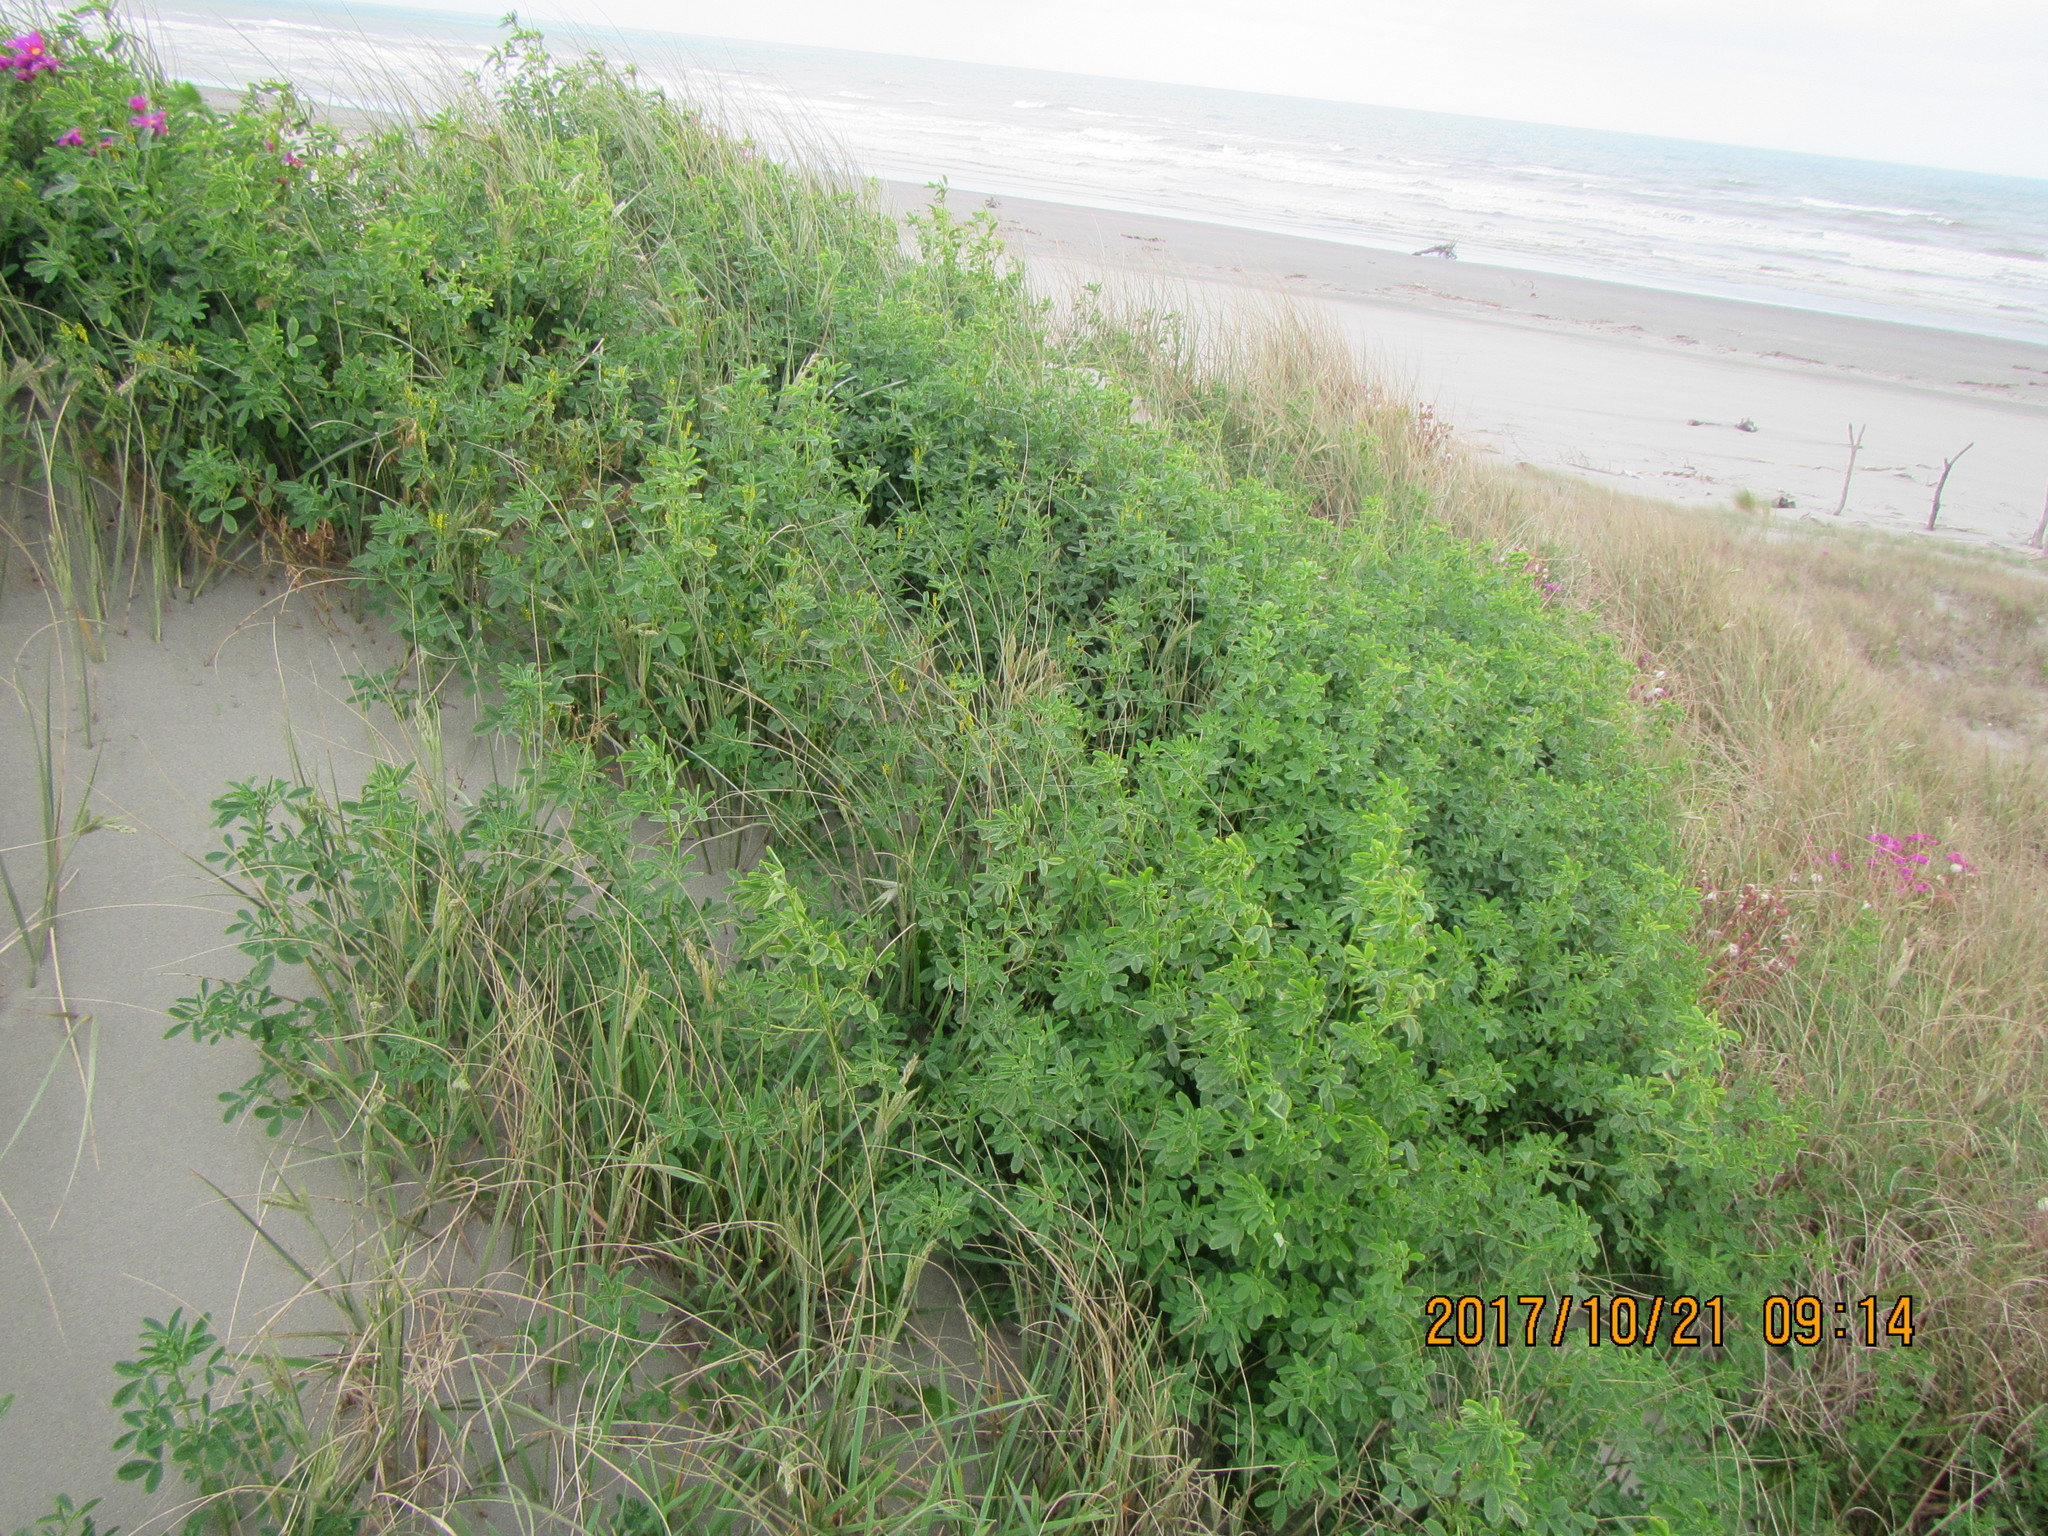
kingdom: Plantae
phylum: Tracheophyta
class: Magnoliopsida
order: Fabales
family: Fabaceae
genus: Melilotus
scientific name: Melilotus indicus
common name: Small melilot
